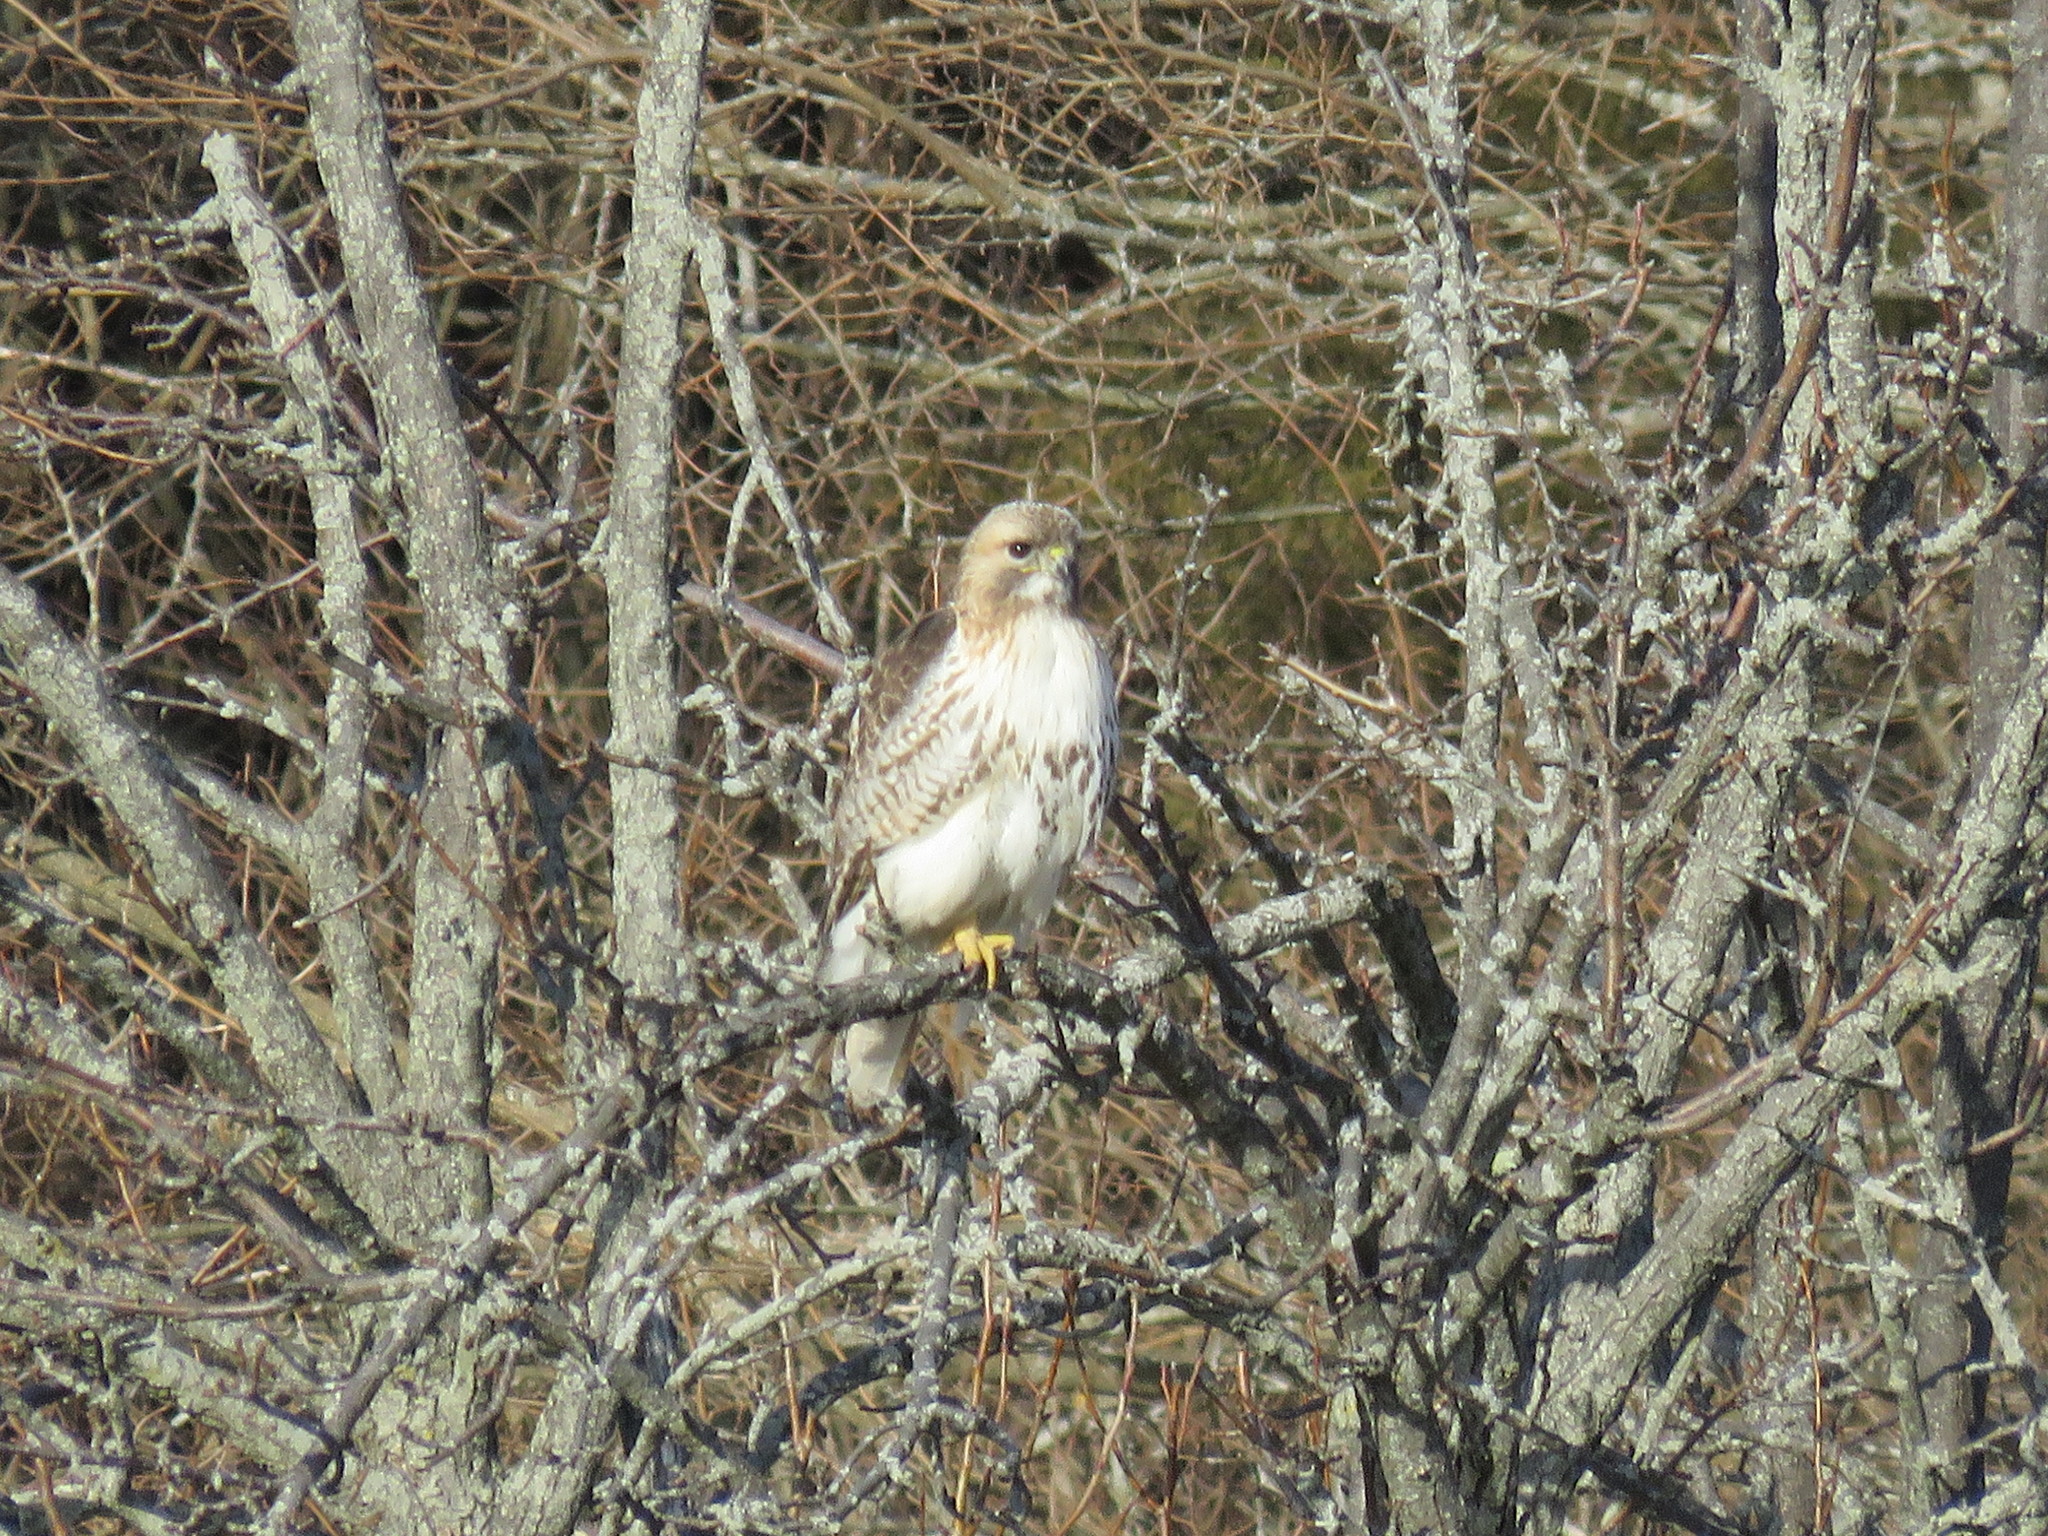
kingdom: Animalia
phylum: Chordata
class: Aves
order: Accipitriformes
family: Accipitridae
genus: Buteo
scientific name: Buteo jamaicensis
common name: Red-tailed hawk
